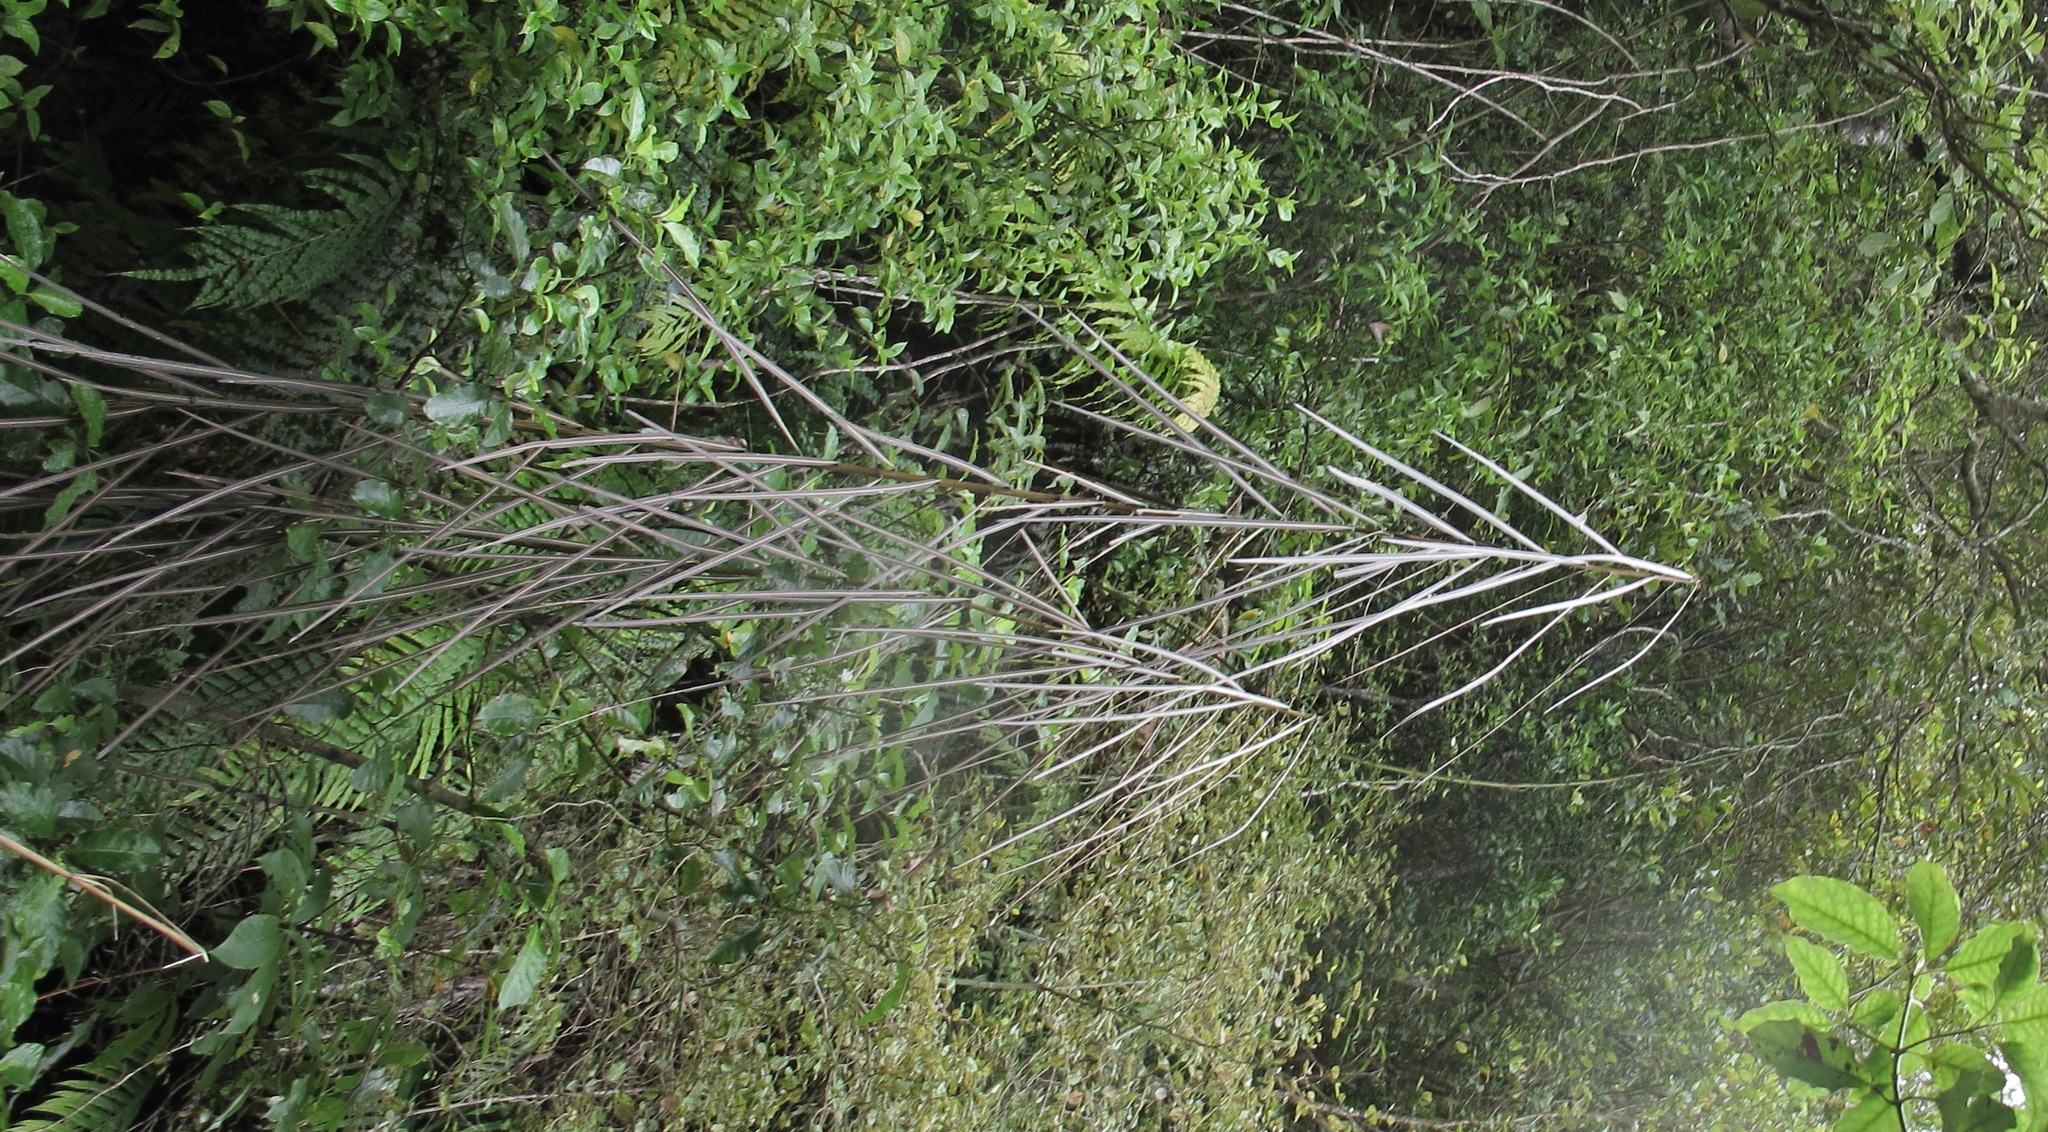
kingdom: Plantae
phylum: Tracheophyta
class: Magnoliopsida
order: Apiales
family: Araliaceae
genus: Pseudopanax
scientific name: Pseudopanax crassifolius
